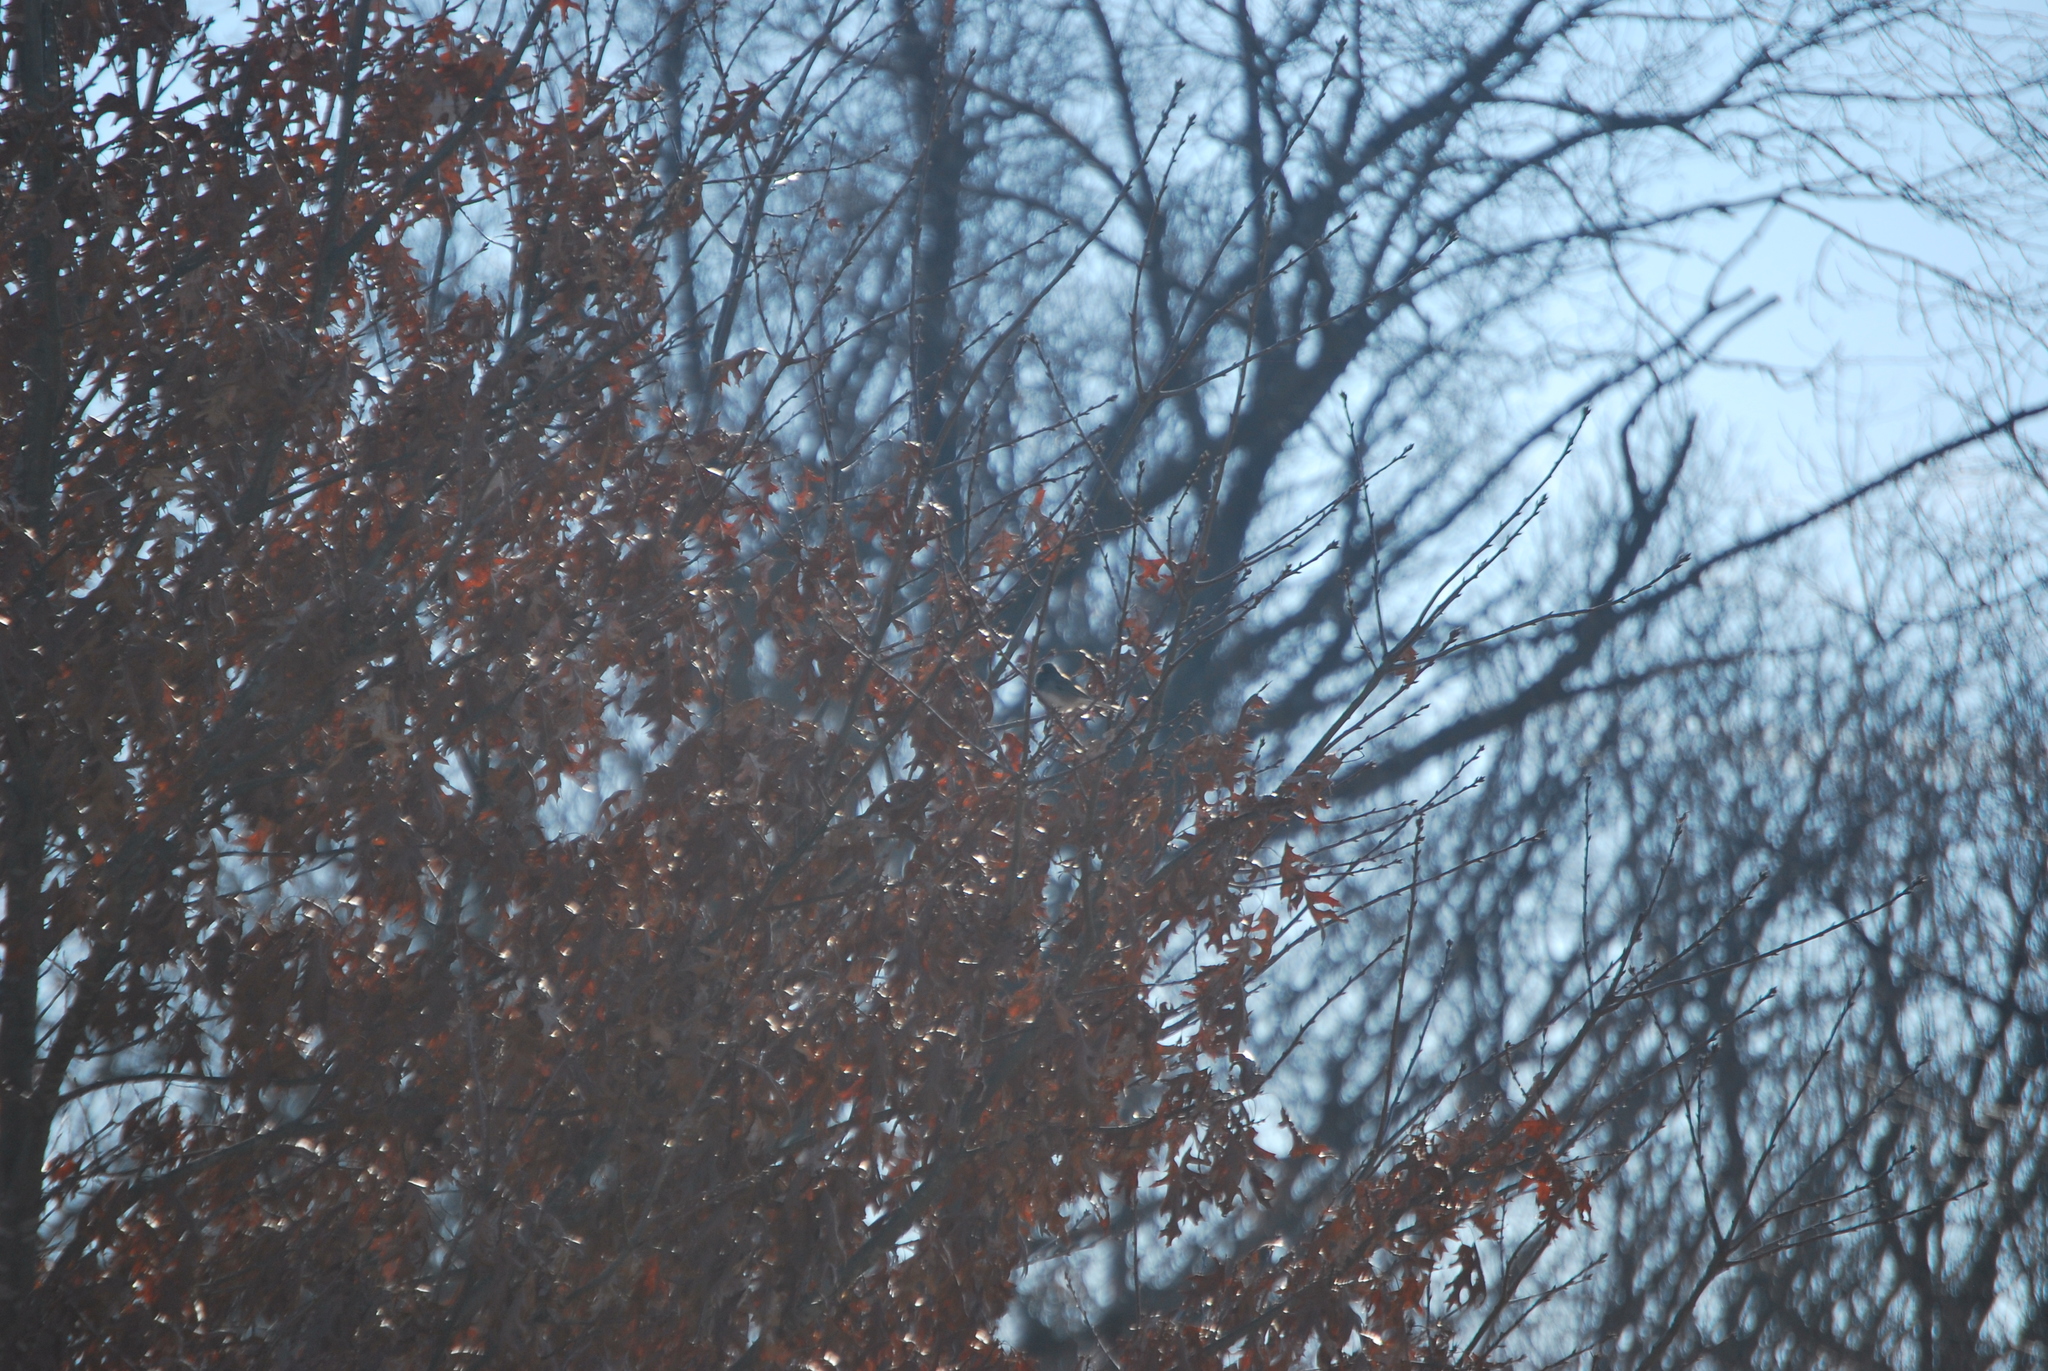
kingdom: Animalia
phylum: Chordata
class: Aves
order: Passeriformes
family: Passerellidae
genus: Junco
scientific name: Junco hyemalis
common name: Dark-eyed junco
